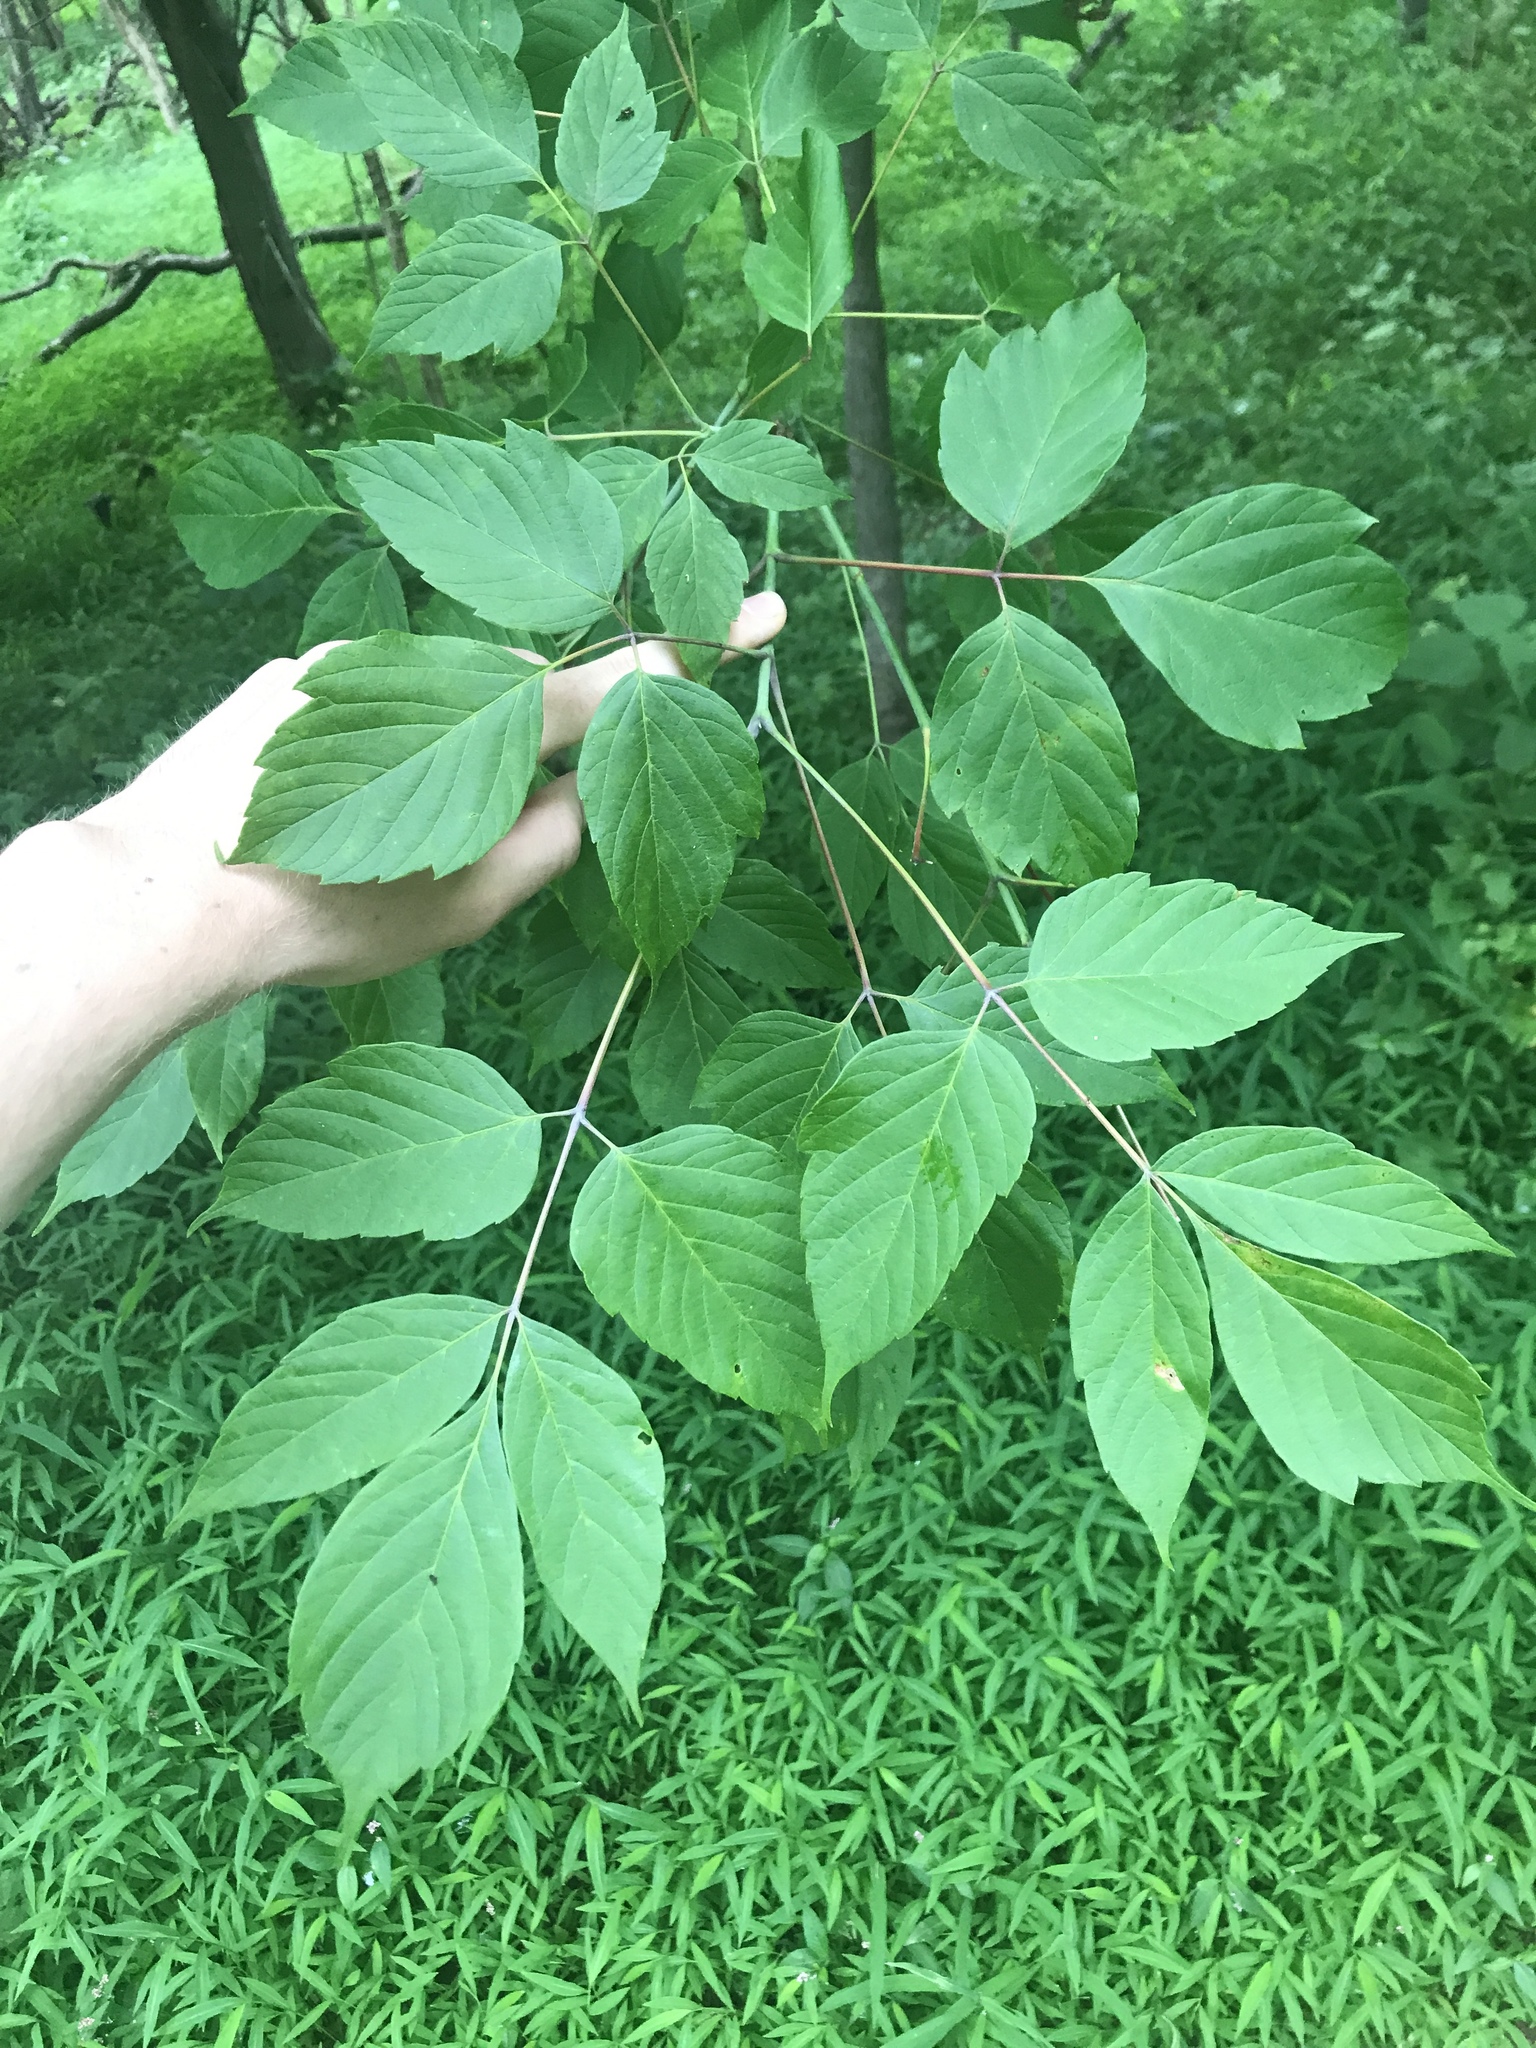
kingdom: Plantae
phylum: Tracheophyta
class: Magnoliopsida
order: Sapindales
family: Sapindaceae
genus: Acer
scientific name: Acer negundo
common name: Ashleaf maple
